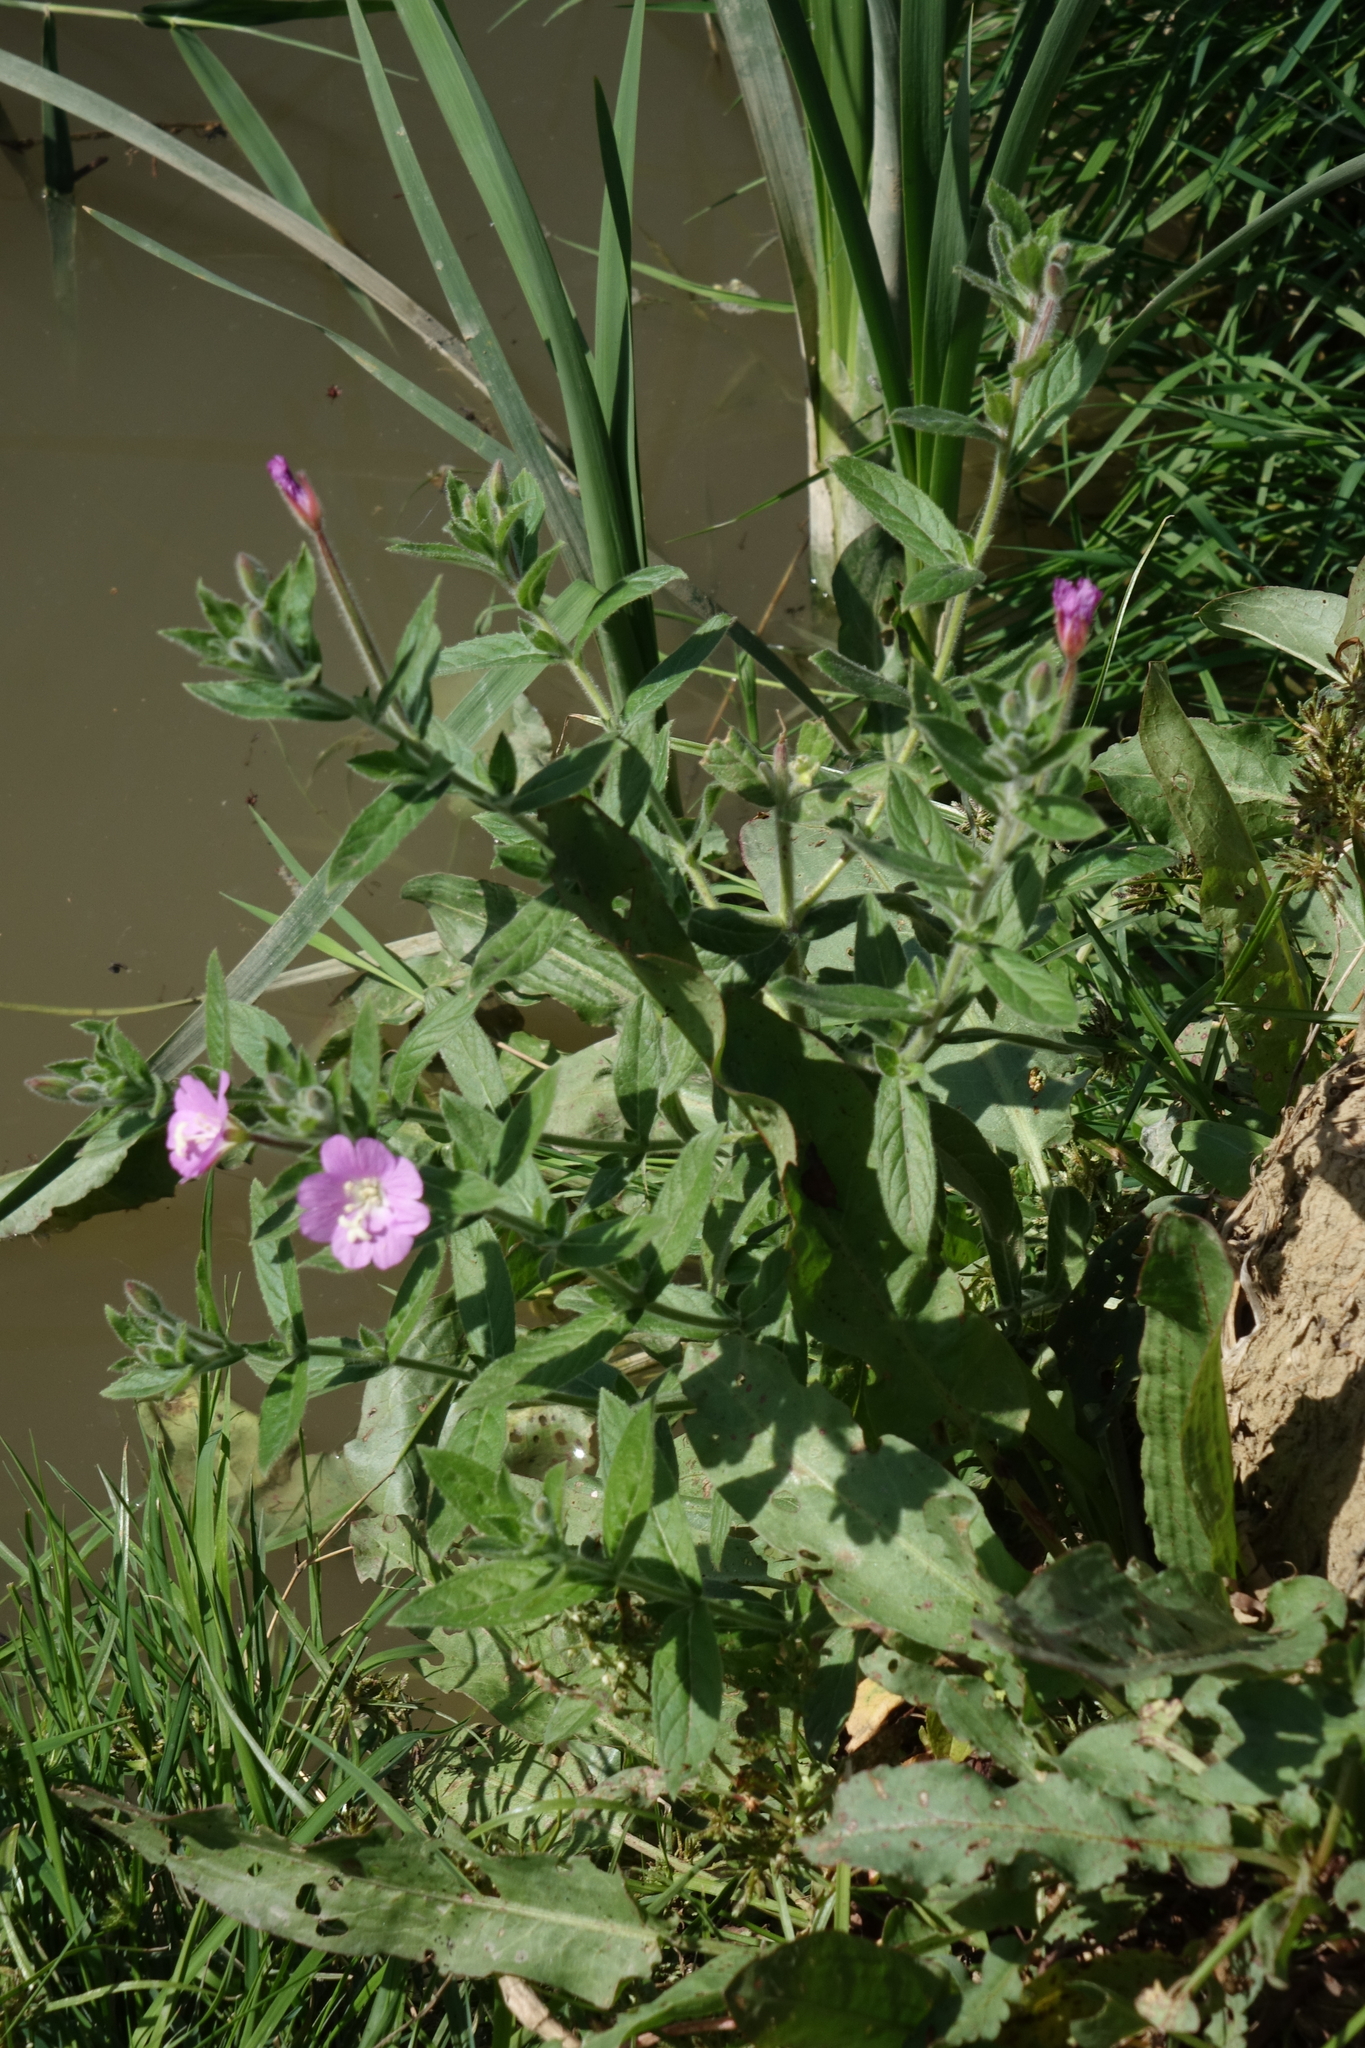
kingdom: Plantae
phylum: Tracheophyta
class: Magnoliopsida
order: Myrtales
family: Onagraceae
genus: Epilobium
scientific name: Epilobium hirsutum
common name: Great willowherb
